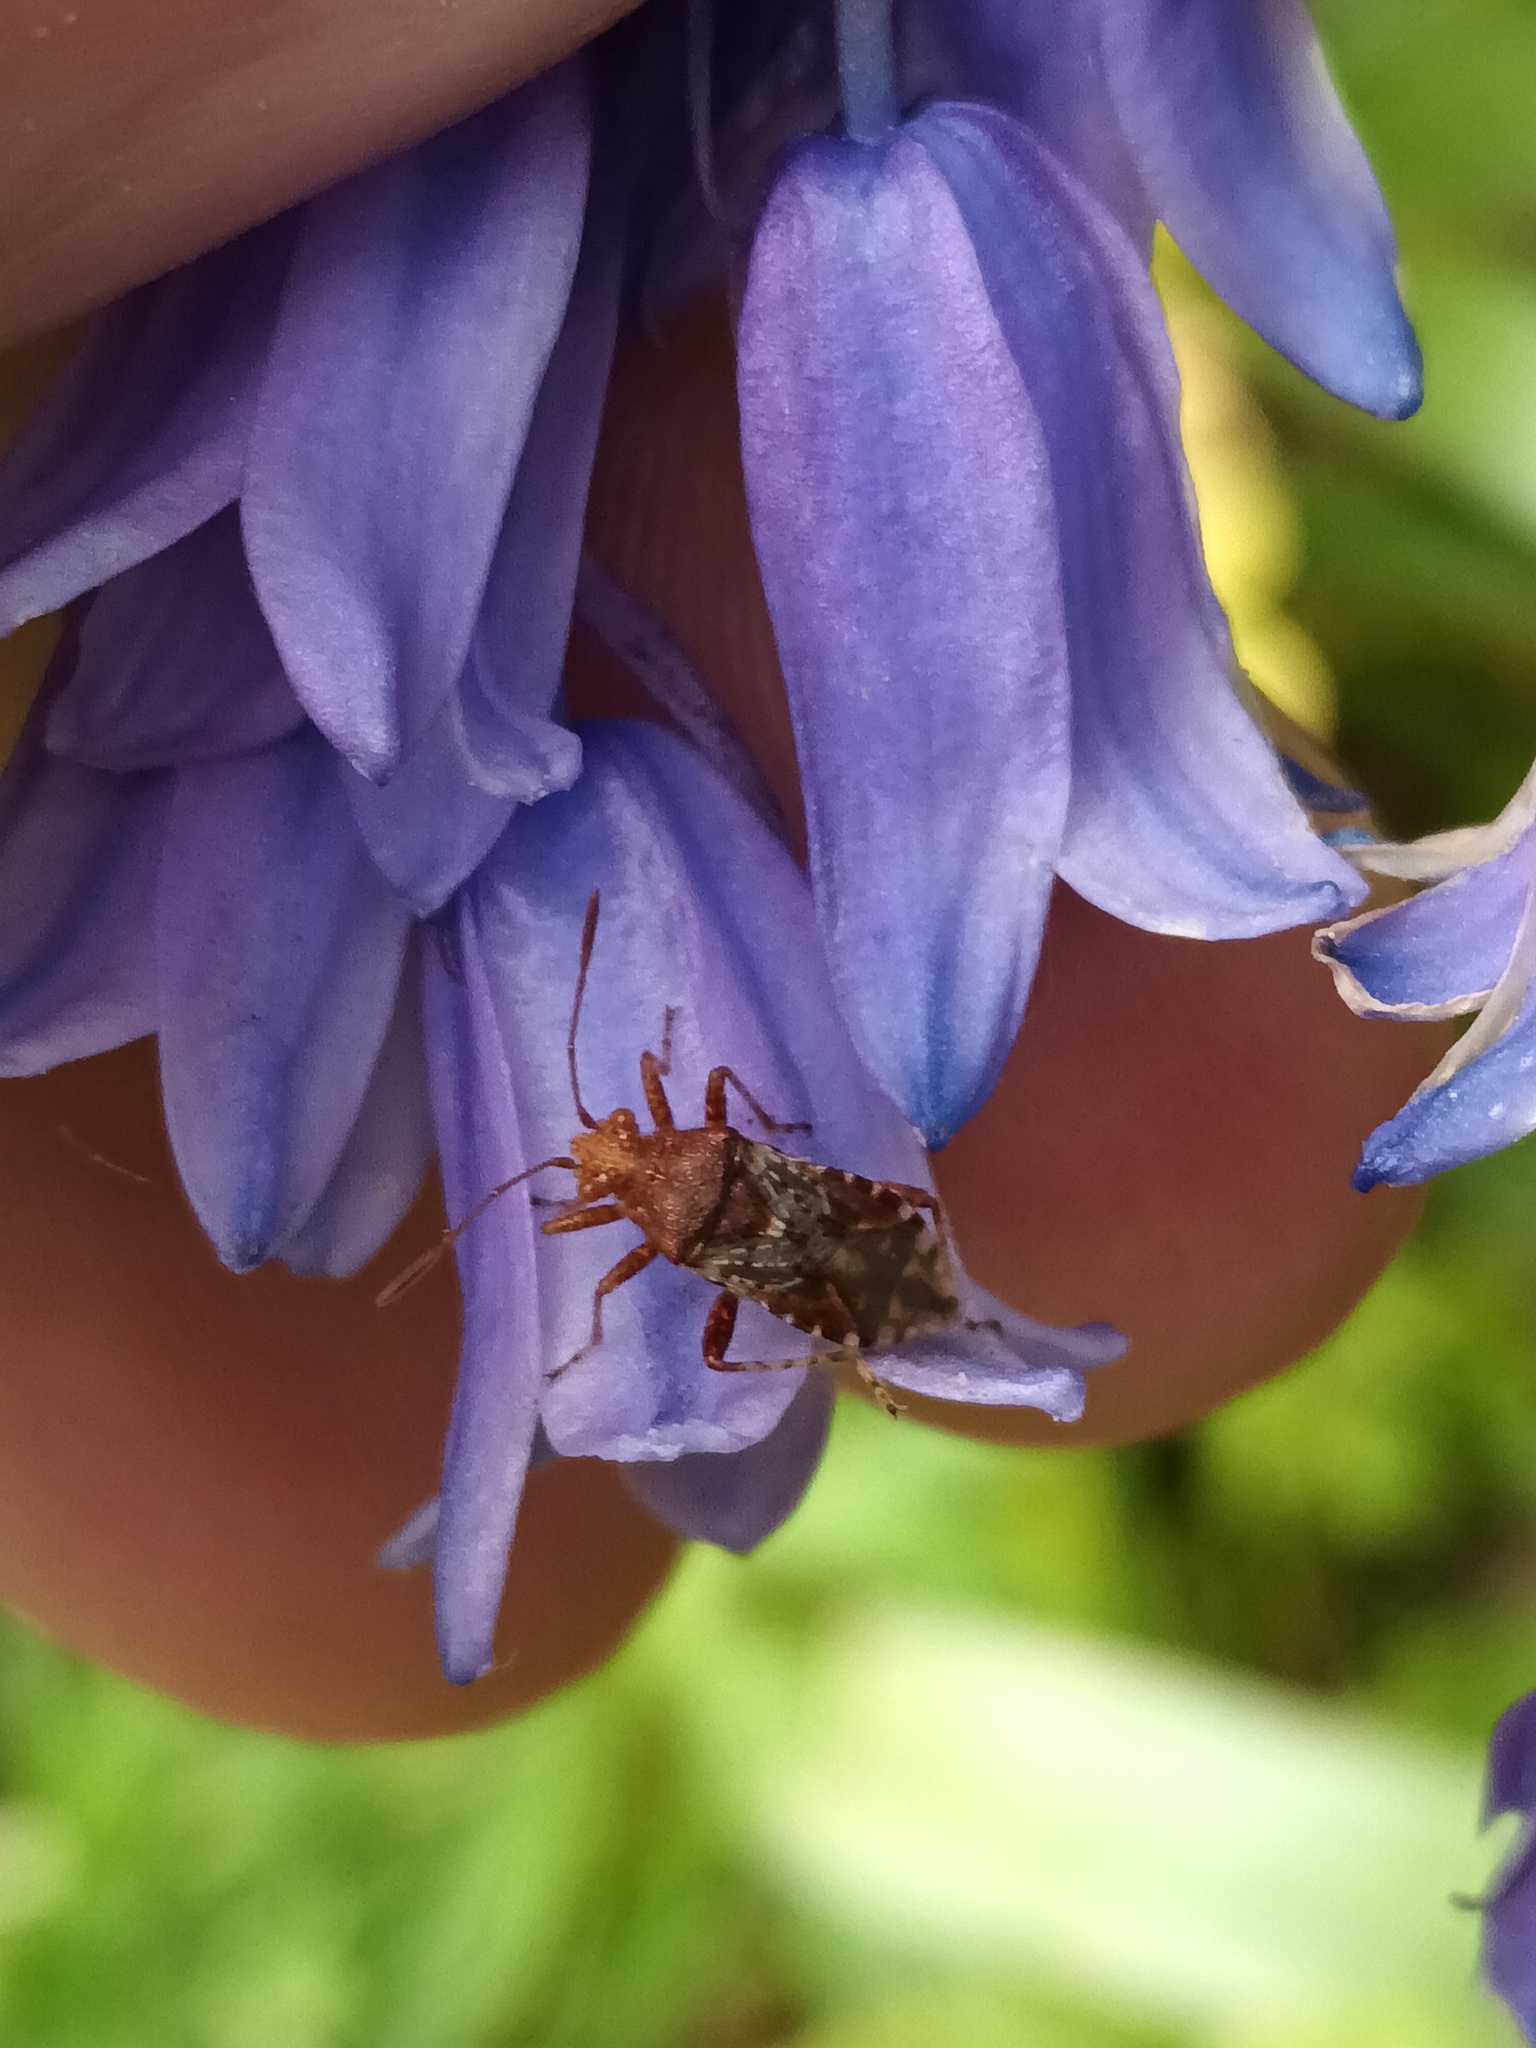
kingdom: Animalia
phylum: Arthropoda
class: Insecta
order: Hemiptera
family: Rhopalidae
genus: Rhopalus
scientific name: Rhopalus subrufus
